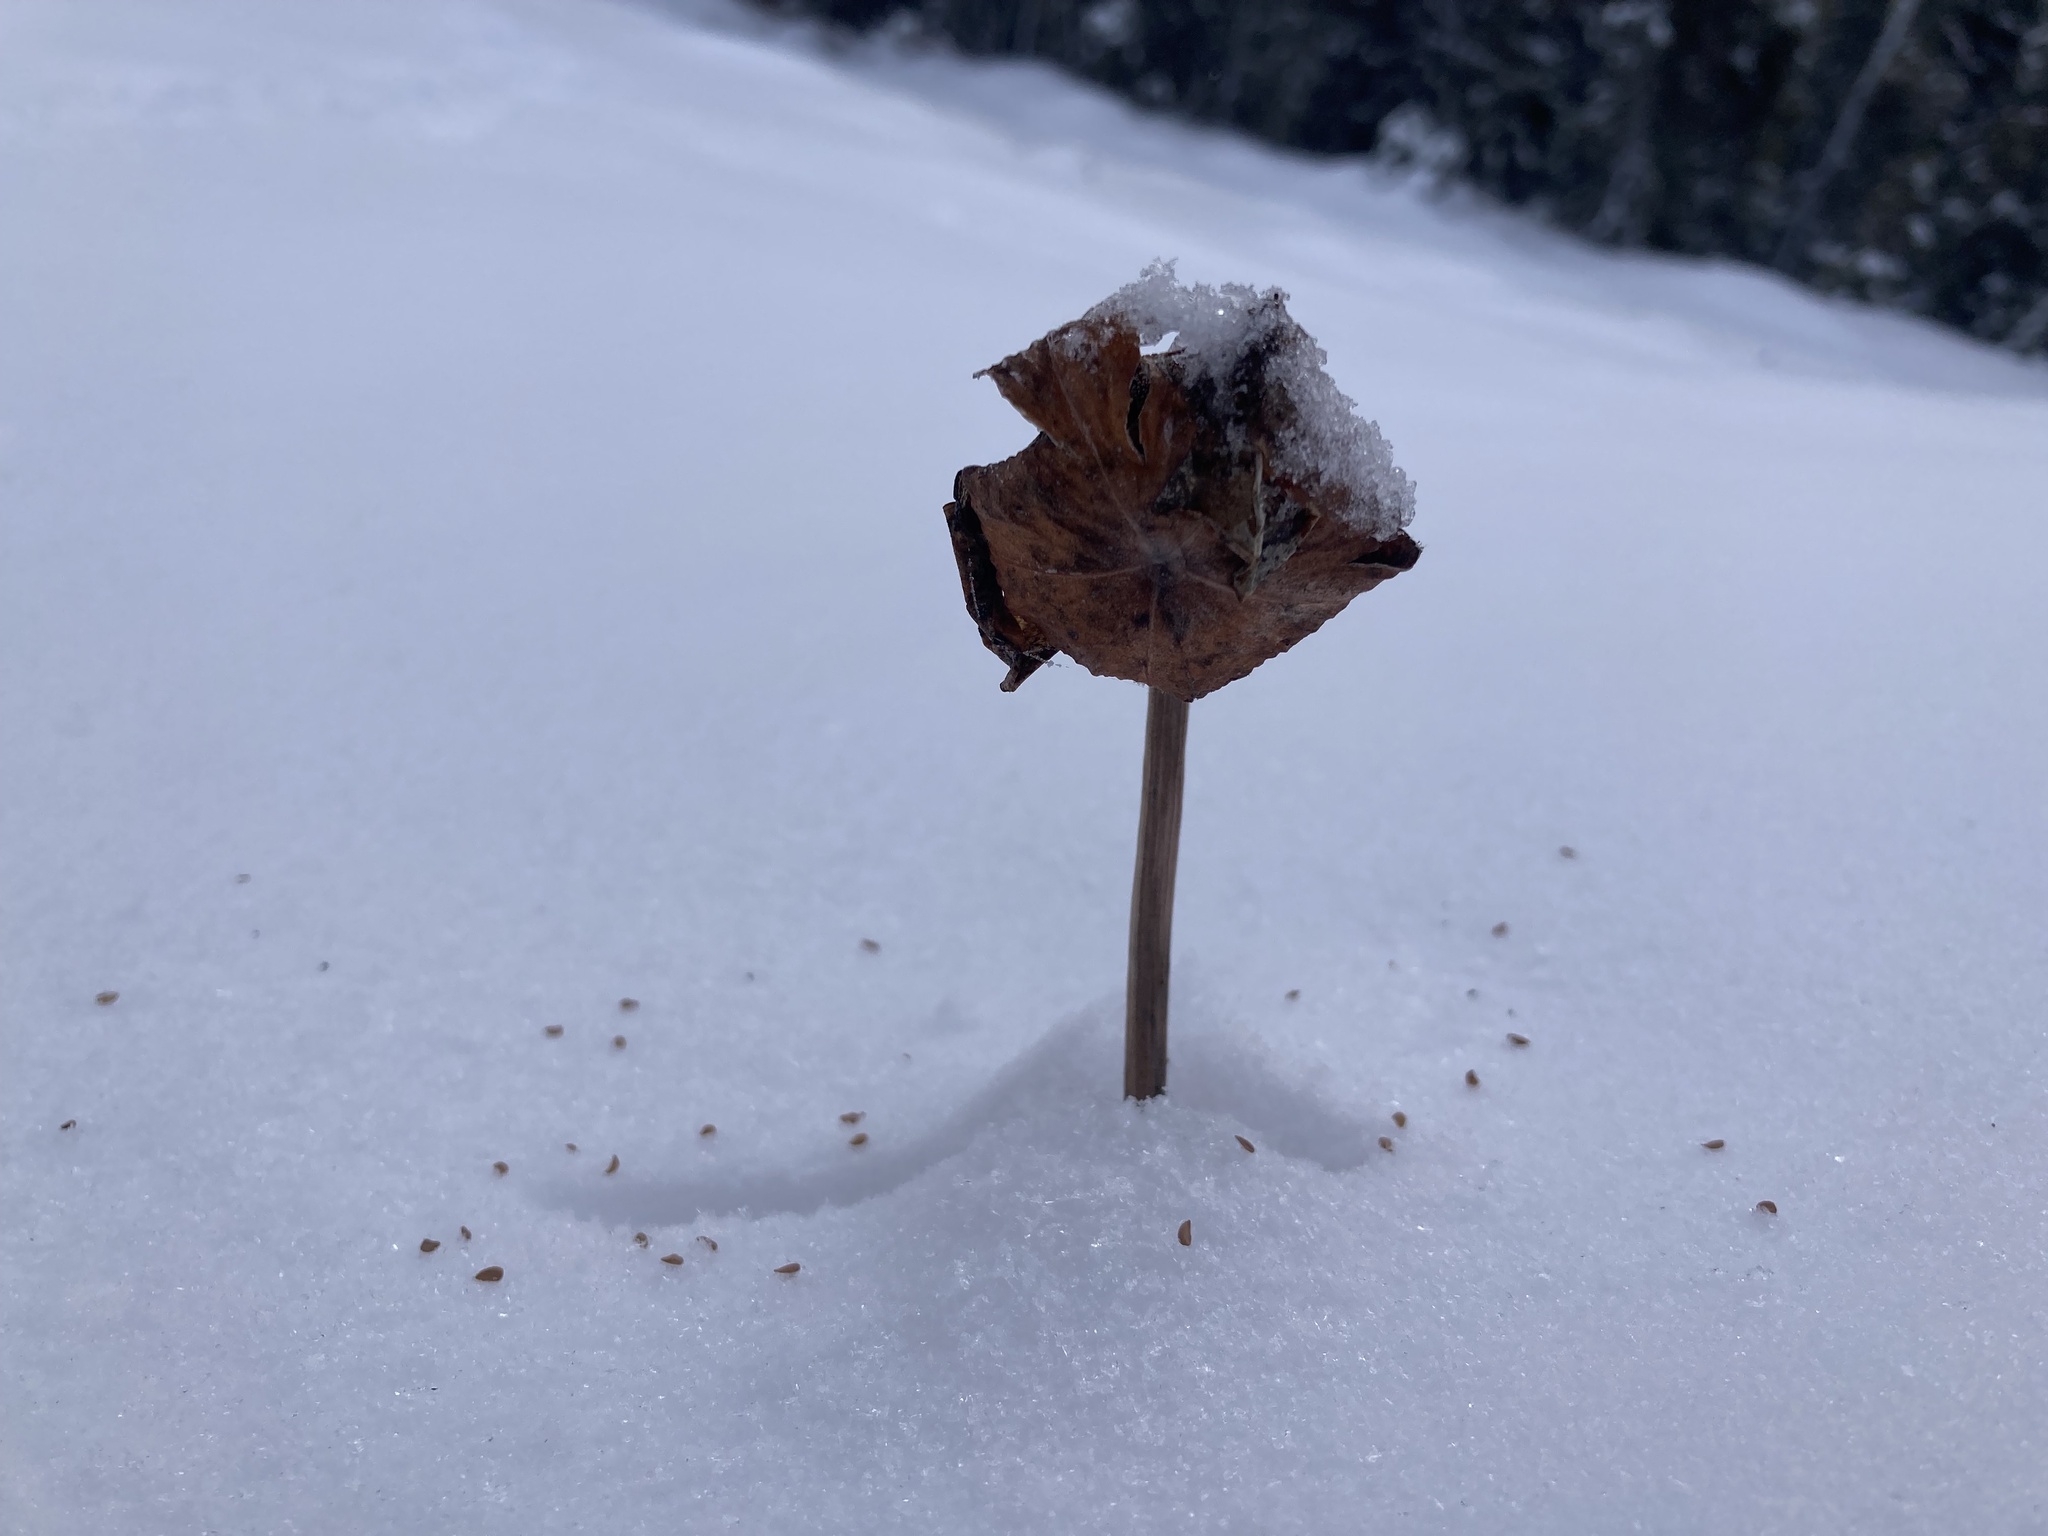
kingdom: Plantae
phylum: Tracheophyta
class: Magnoliopsida
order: Ericales
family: Sarraceniaceae
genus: Sarracenia
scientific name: Sarracenia purpurea
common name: Pitcherplant
